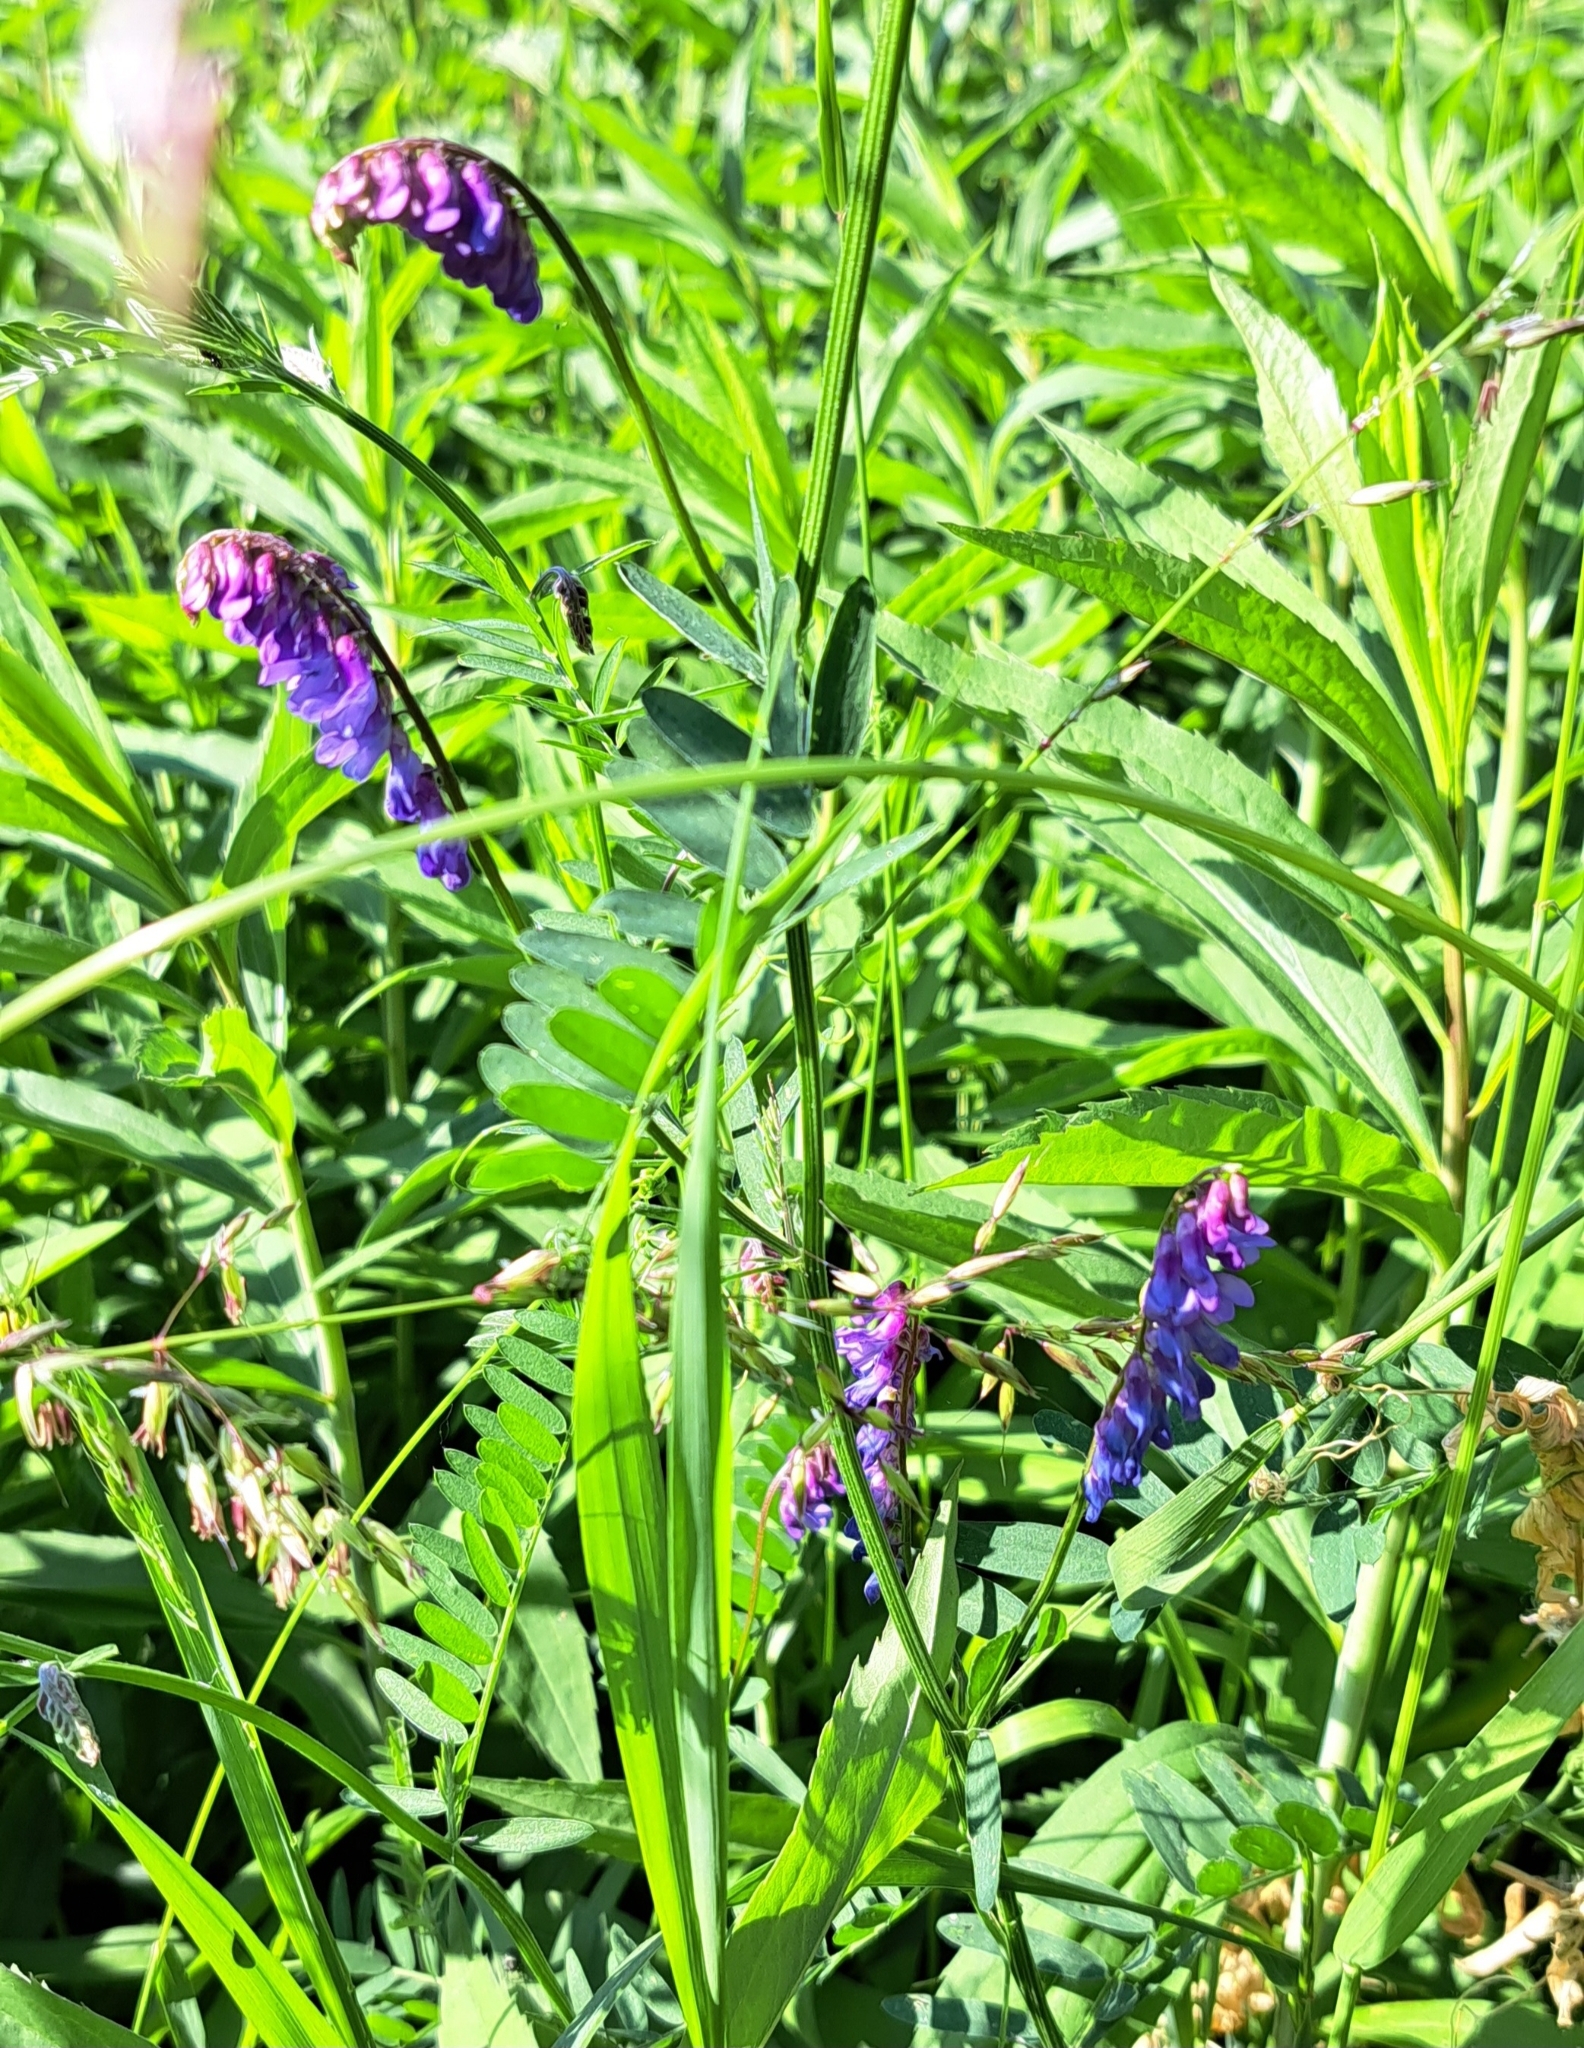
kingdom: Plantae
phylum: Tracheophyta
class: Magnoliopsida
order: Fabales
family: Fabaceae
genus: Vicia
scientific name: Vicia cracca
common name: Bird vetch
